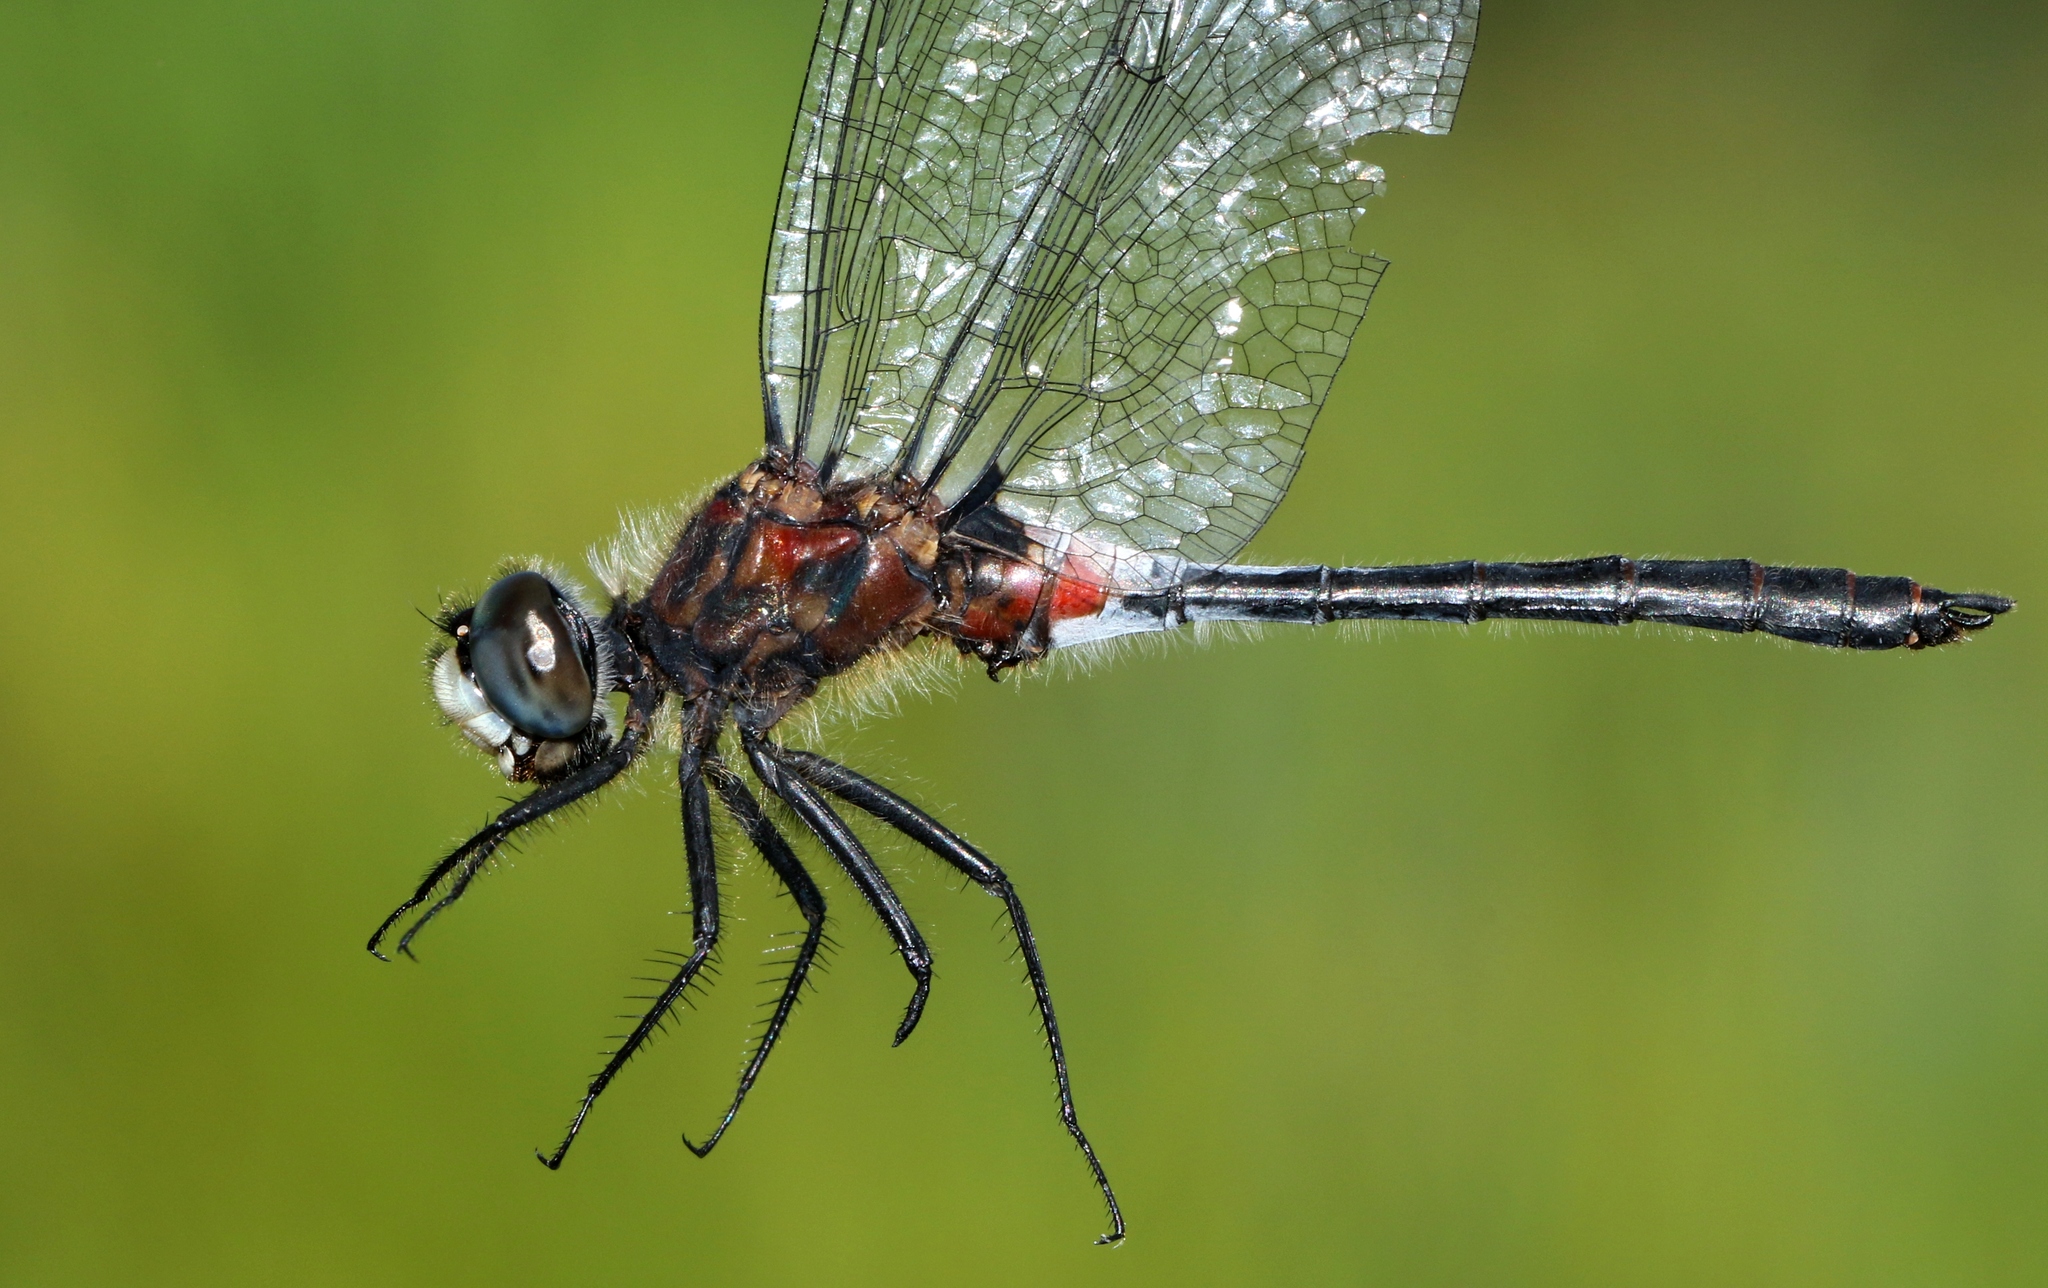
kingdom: Animalia
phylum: Arthropoda
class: Insecta
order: Odonata
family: Libellulidae
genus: Leucorrhinia
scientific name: Leucorrhinia proxima
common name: Belted whiteface
